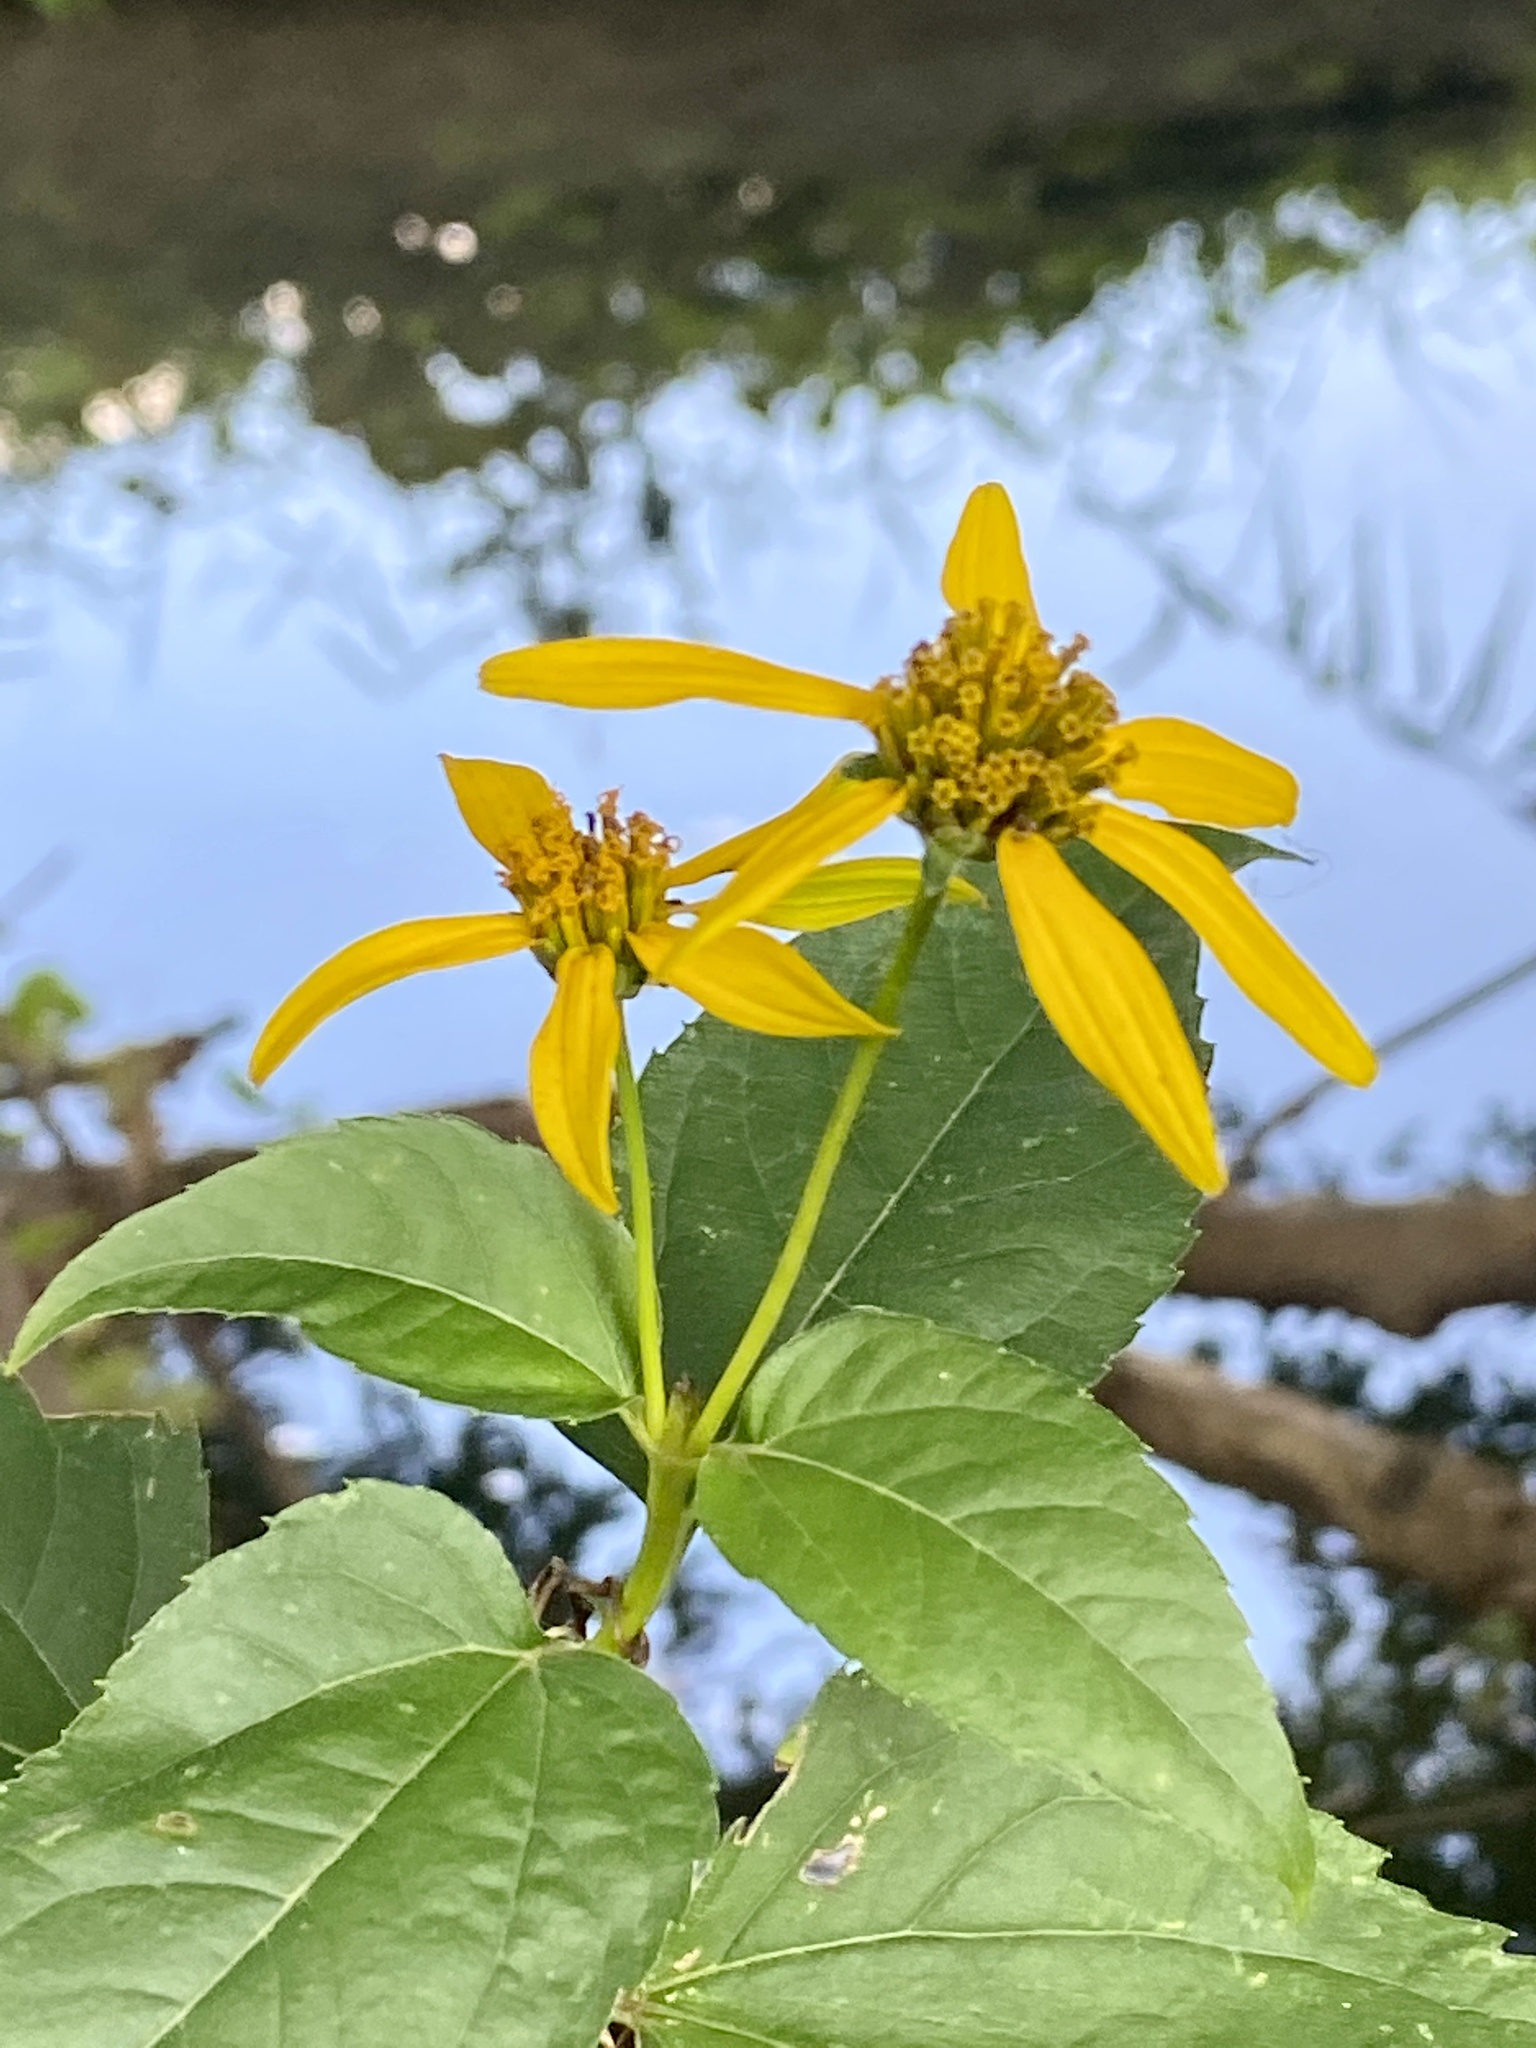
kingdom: Plantae
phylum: Tracheophyta
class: Magnoliopsida
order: Asterales
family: Asteraceae
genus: Heliopsis
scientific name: Heliopsis helianthoides
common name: False sunflower
